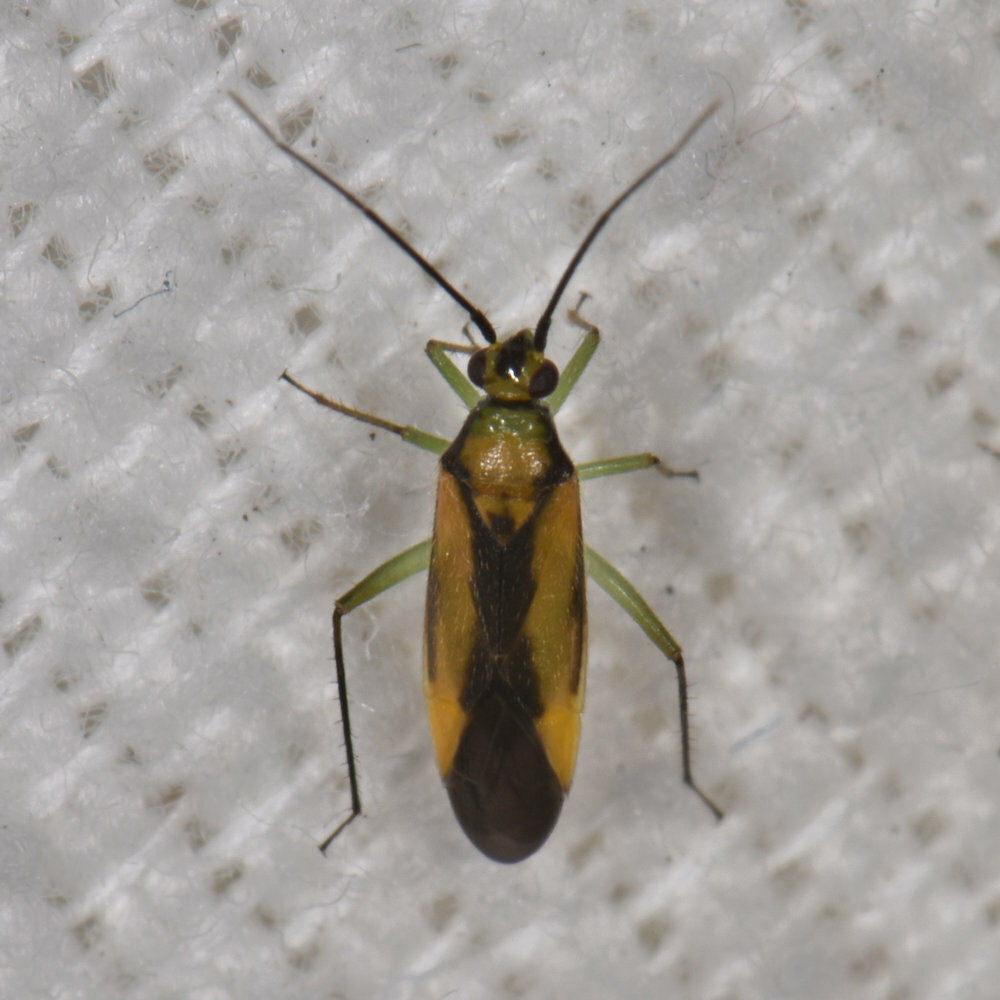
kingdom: Animalia
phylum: Arthropoda
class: Insecta
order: Hemiptera
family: Miridae
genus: Orthotylus
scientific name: Orthotylus submarginatus
